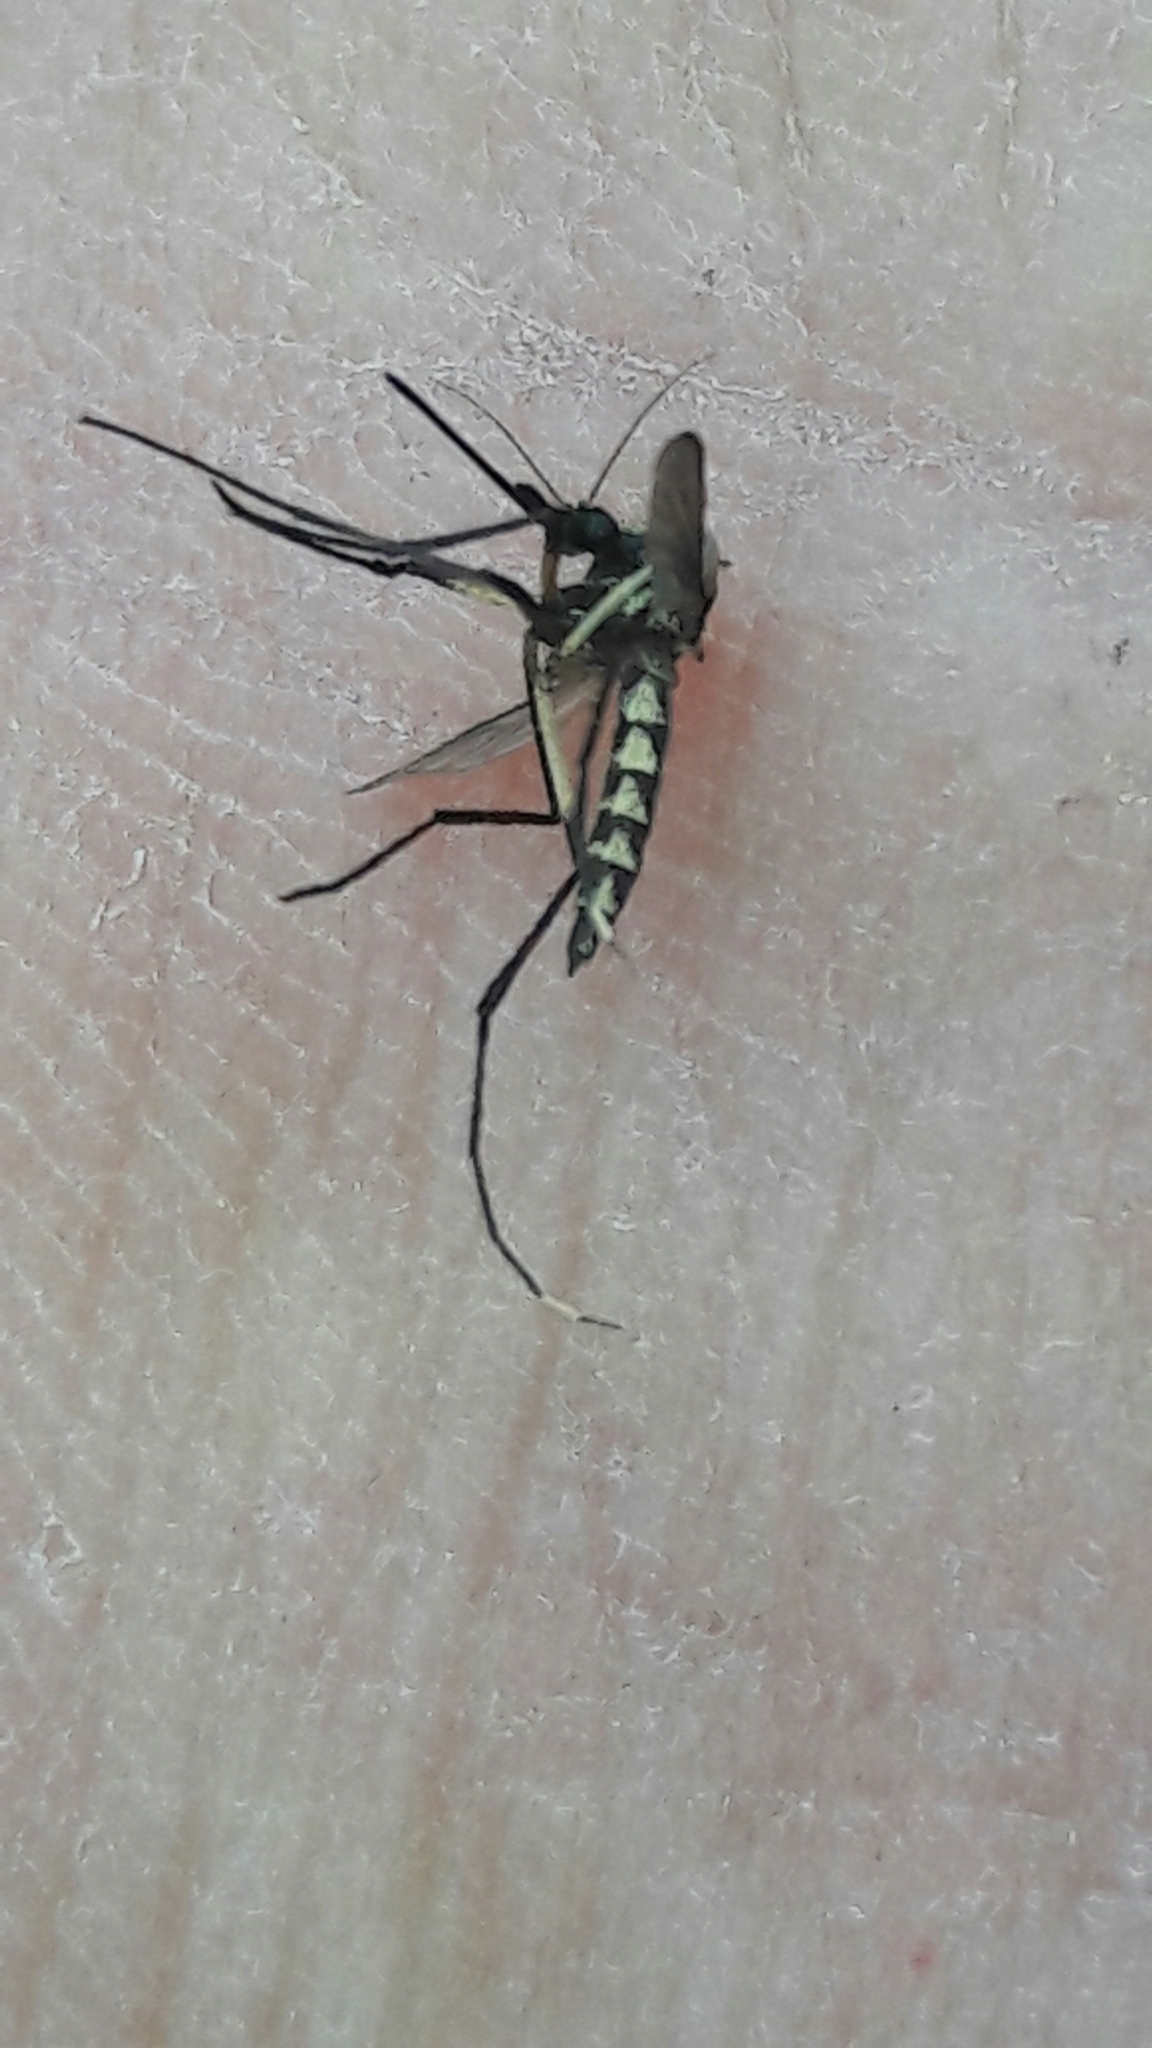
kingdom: Animalia
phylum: Arthropoda
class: Insecta
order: Diptera
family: Culicidae
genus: Psorophora
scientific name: Psorophora albigenu
